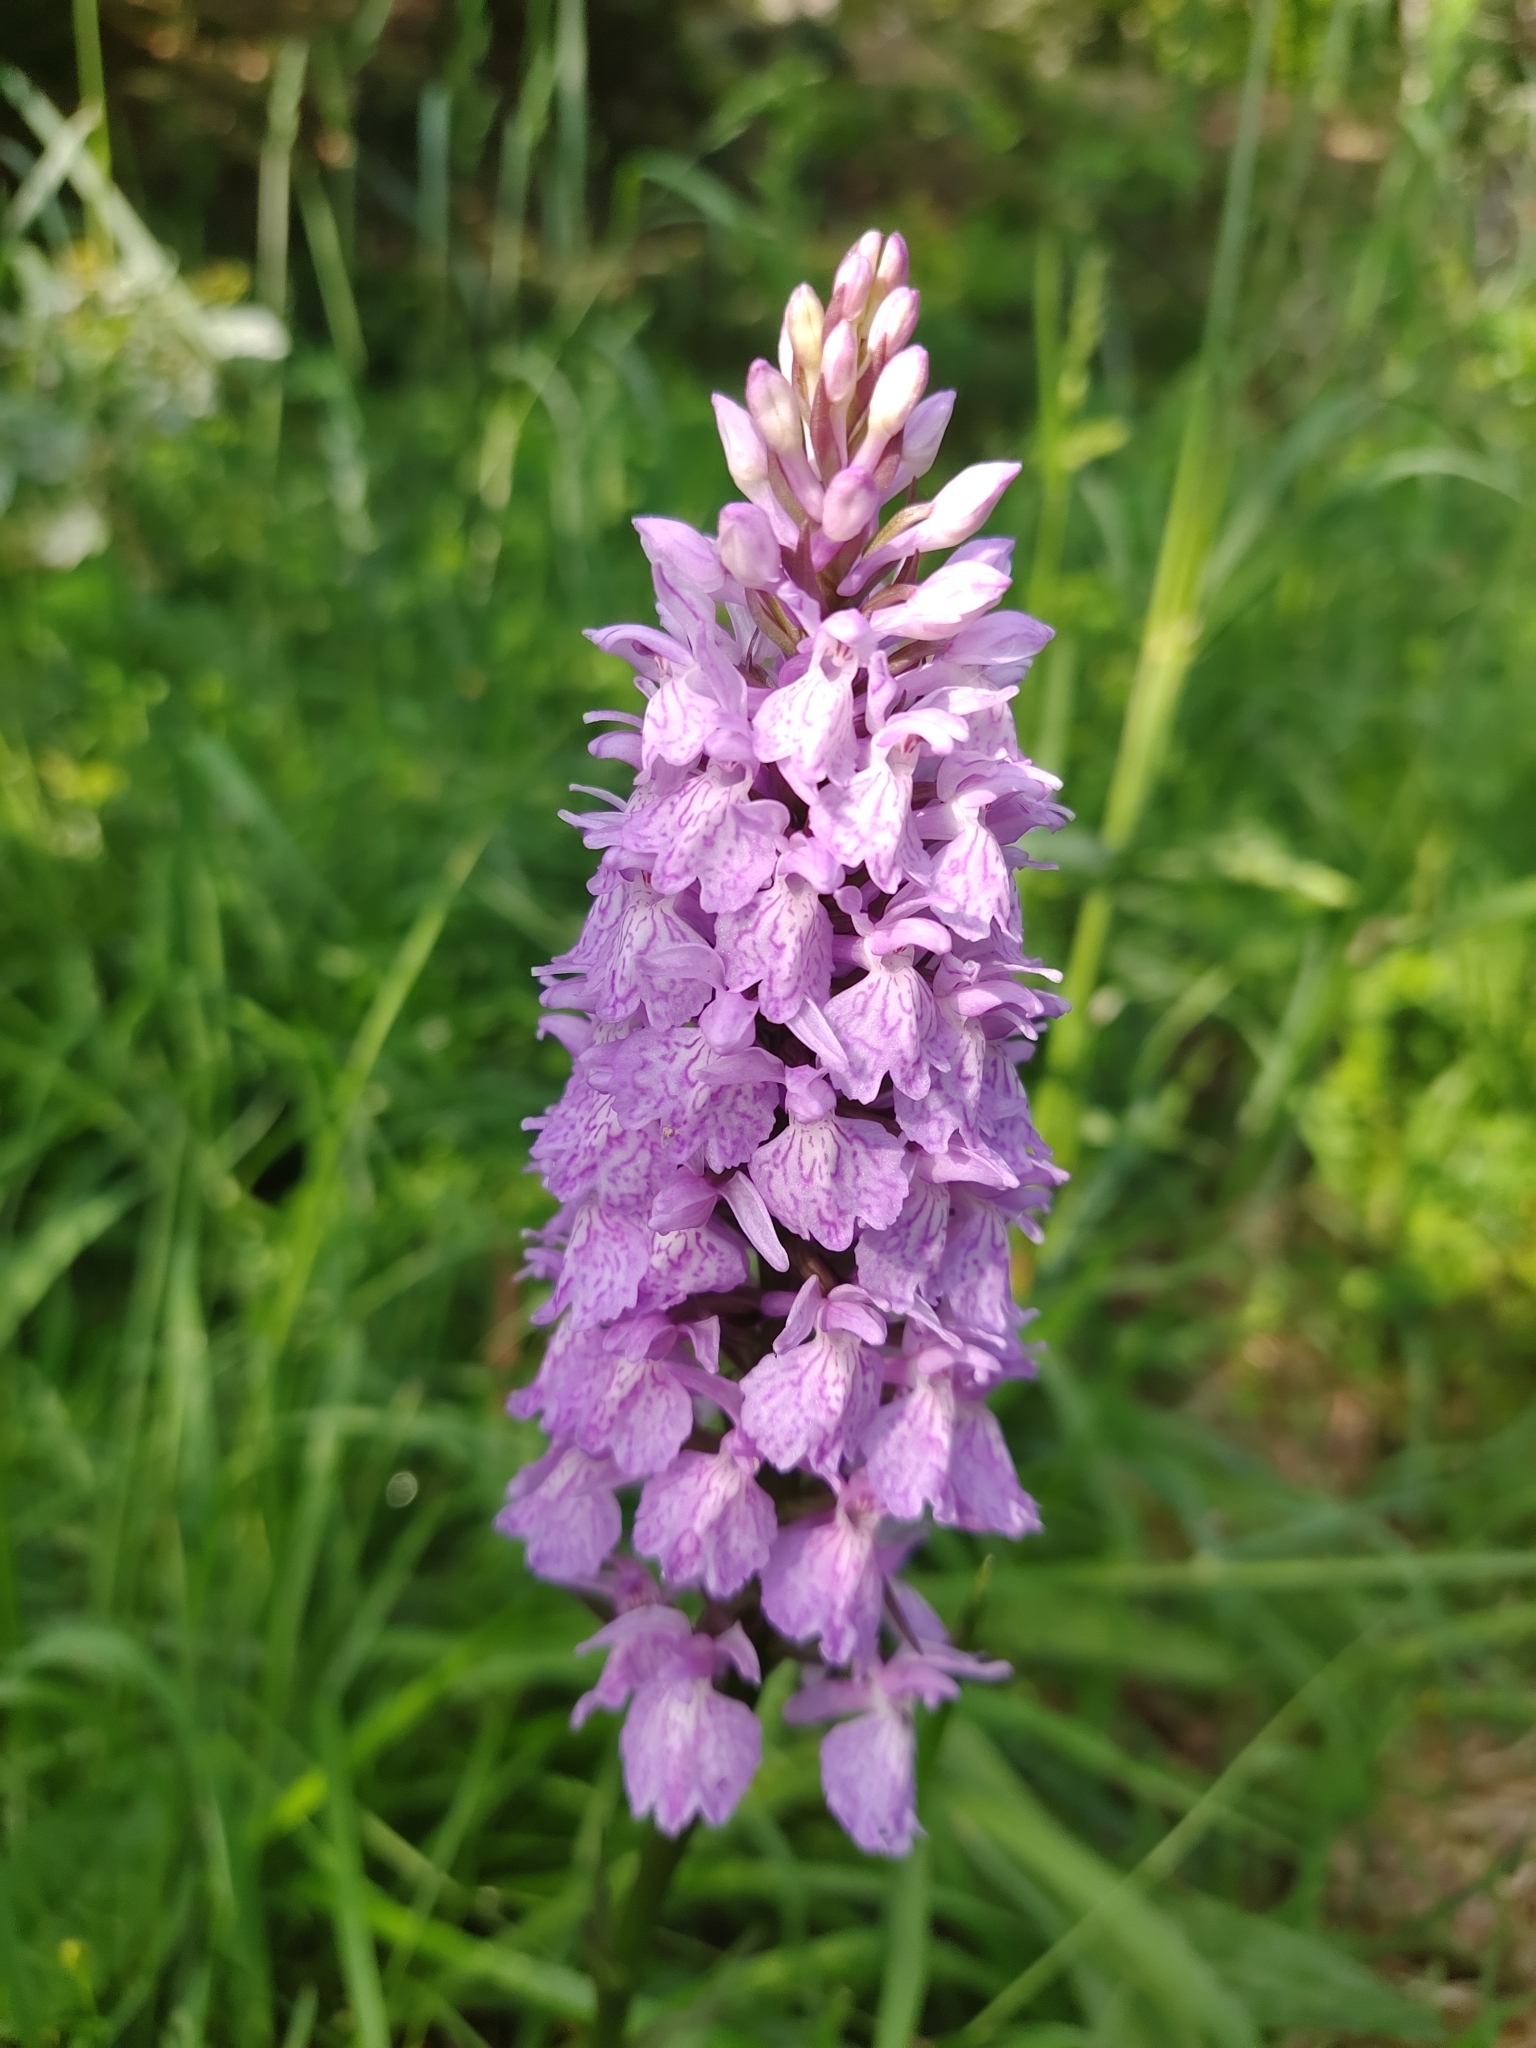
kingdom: Plantae
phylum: Tracheophyta
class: Liliopsida
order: Asparagales
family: Orchidaceae
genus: Dactylorhiza
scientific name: Dactylorhiza maculata
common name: Heath spotted-orchid
